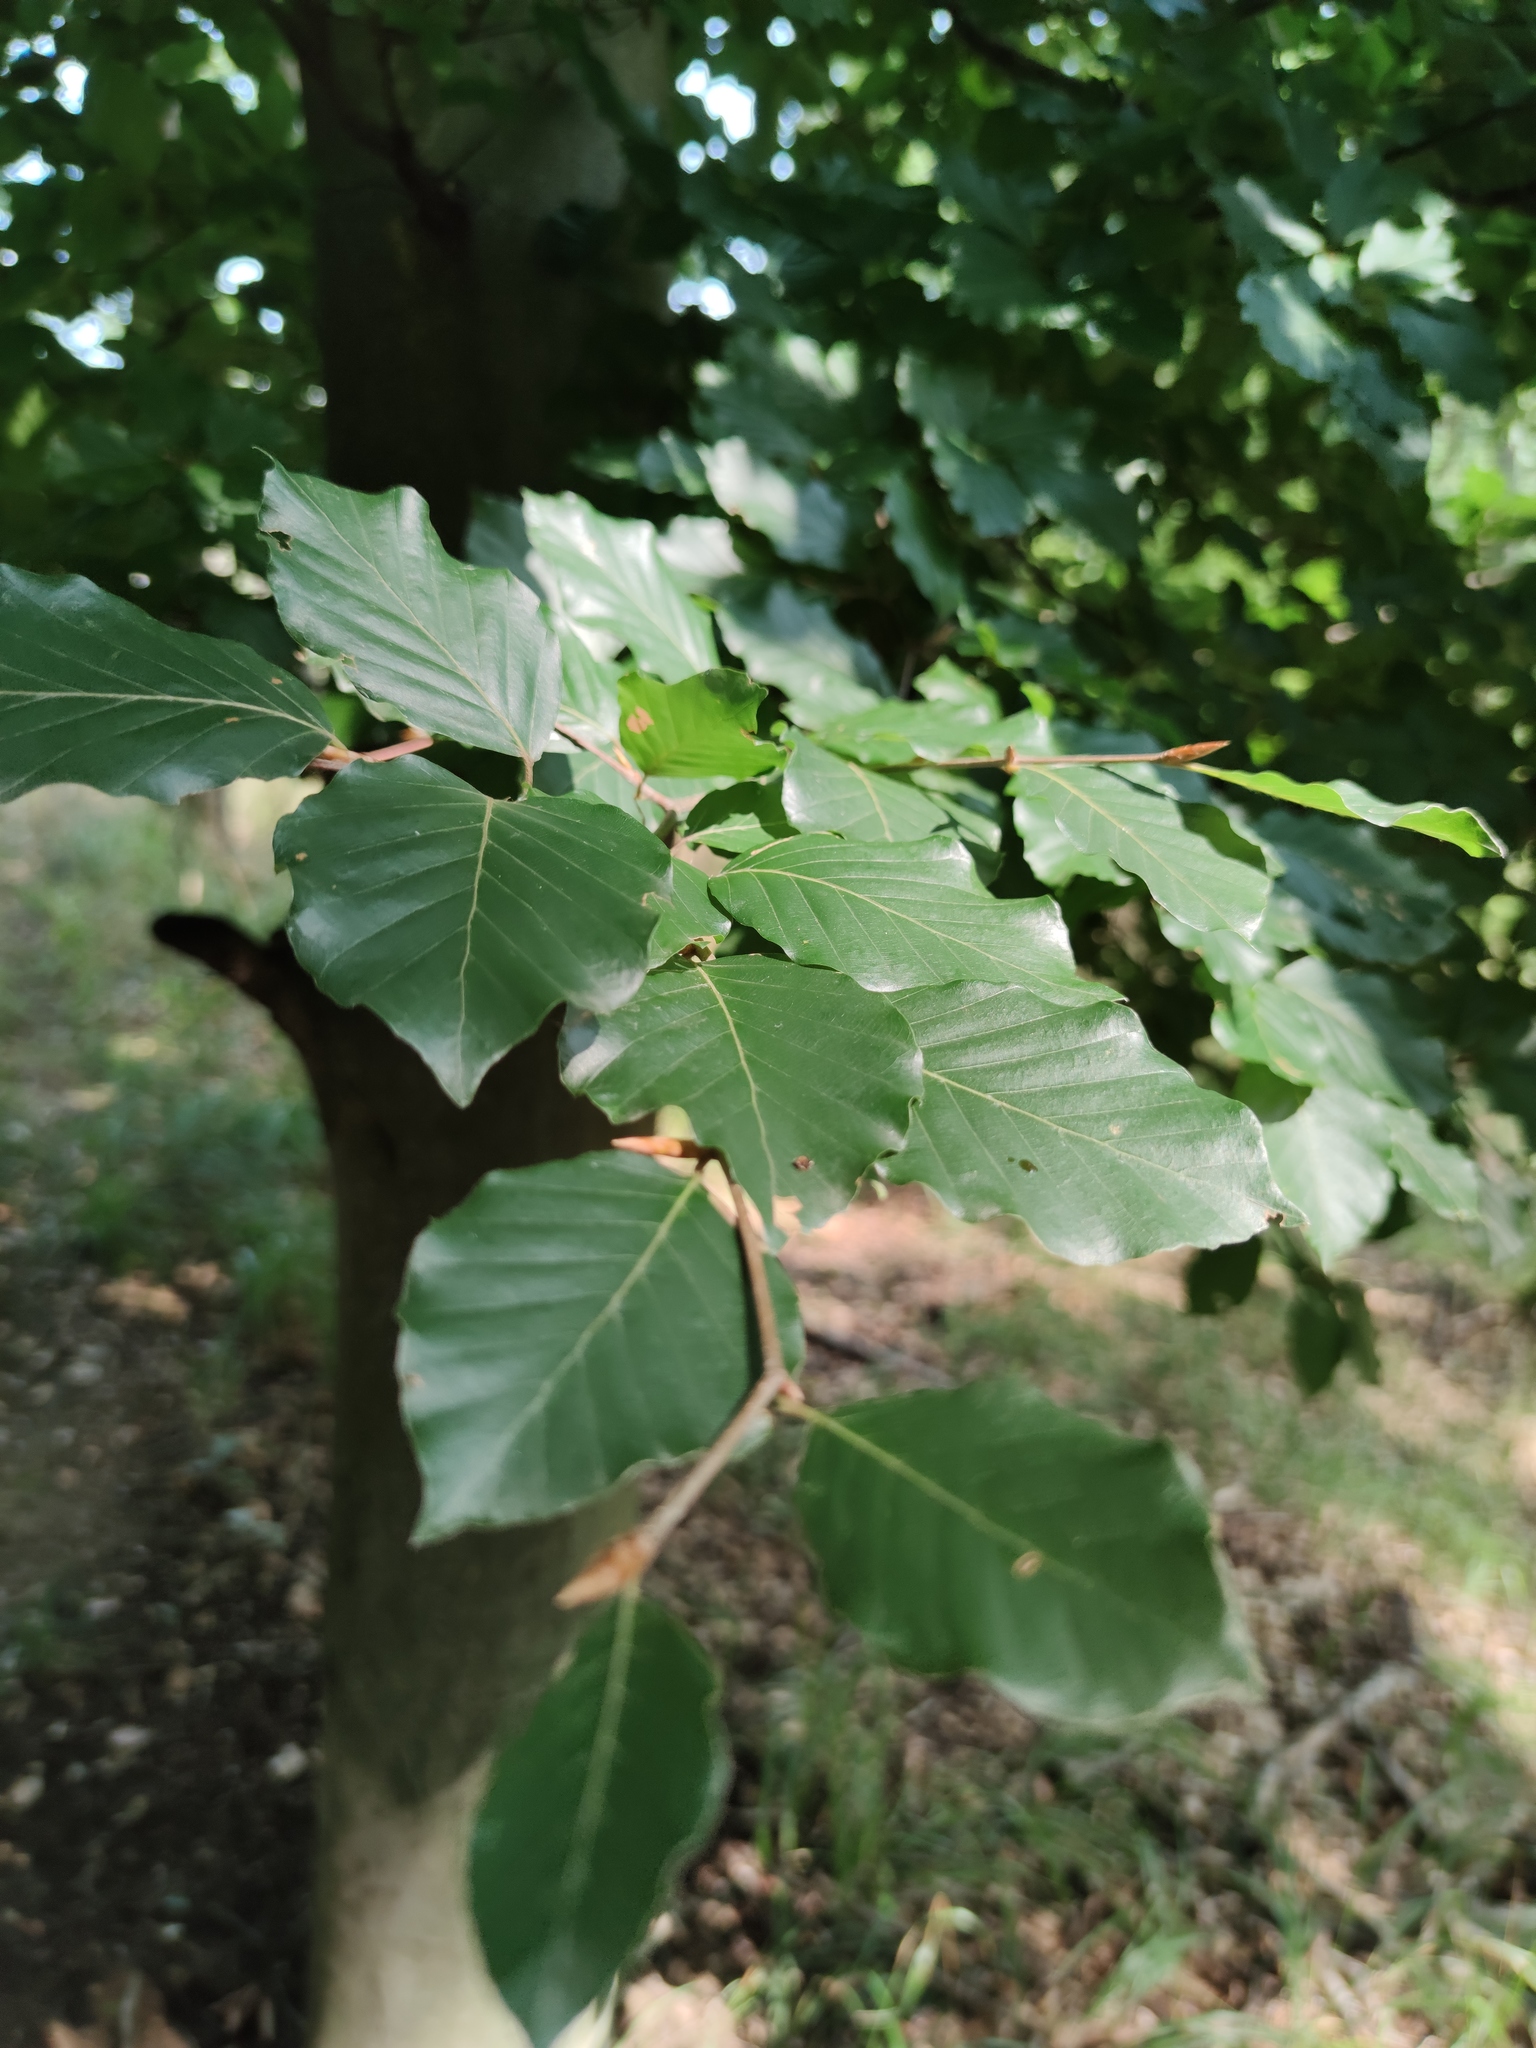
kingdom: Plantae
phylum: Tracheophyta
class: Magnoliopsida
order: Fagales
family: Fagaceae
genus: Fagus
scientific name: Fagus sylvatica
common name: Beech
